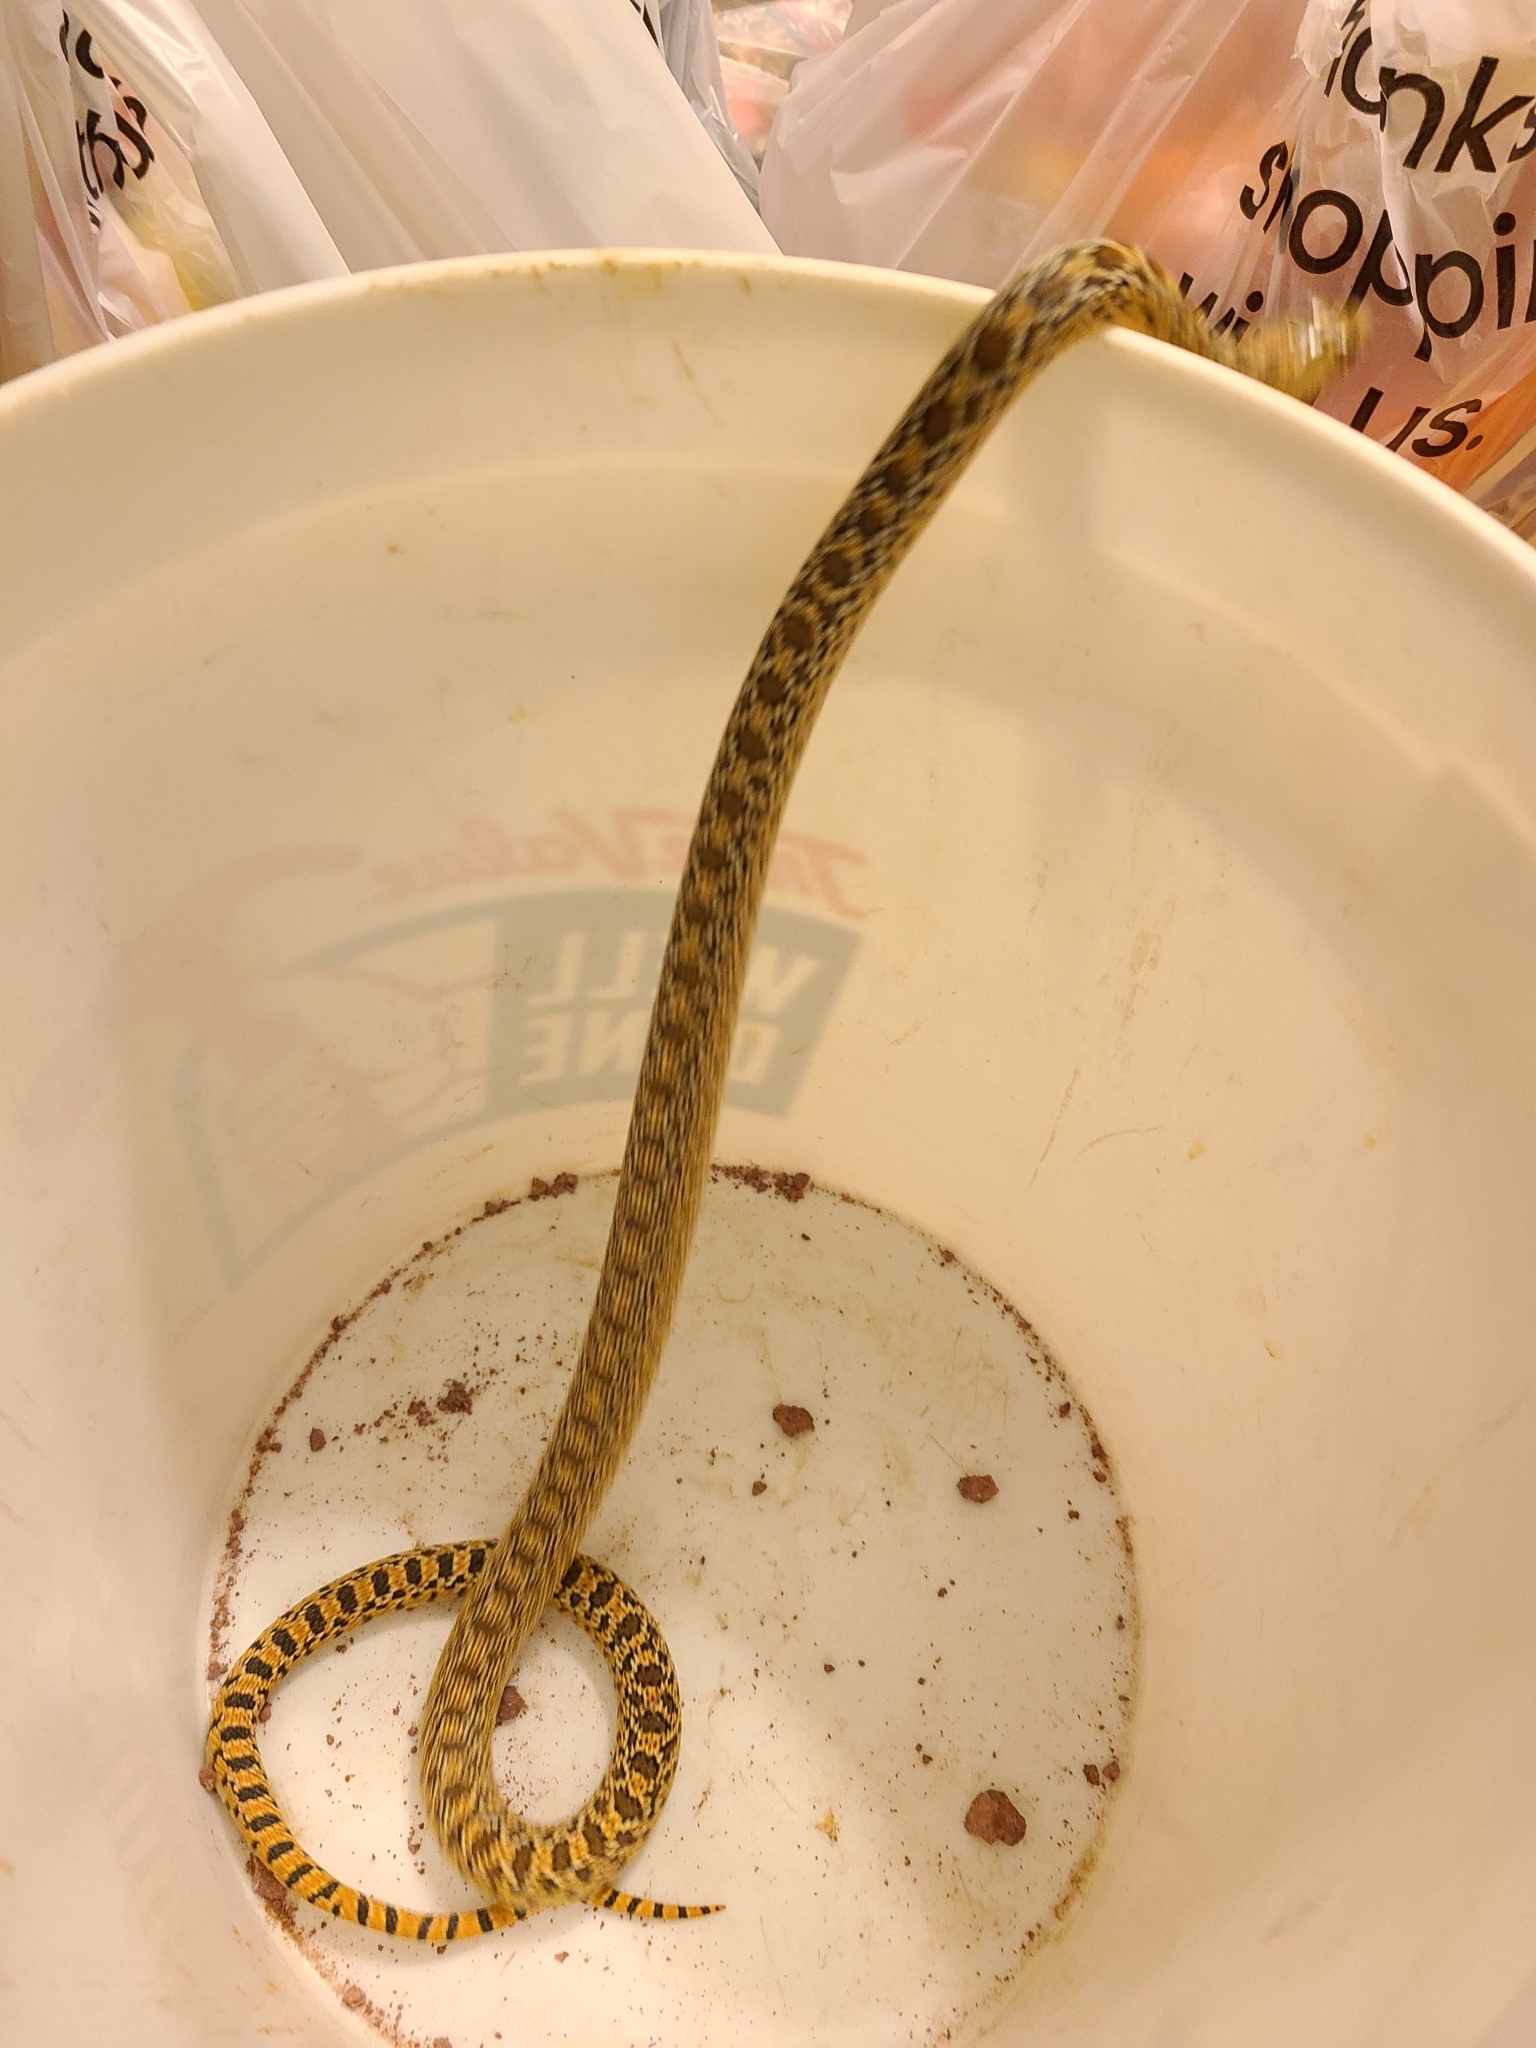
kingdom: Animalia
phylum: Chordata
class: Squamata
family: Colubridae
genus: Pituophis
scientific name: Pituophis catenifer
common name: Gopher snake
